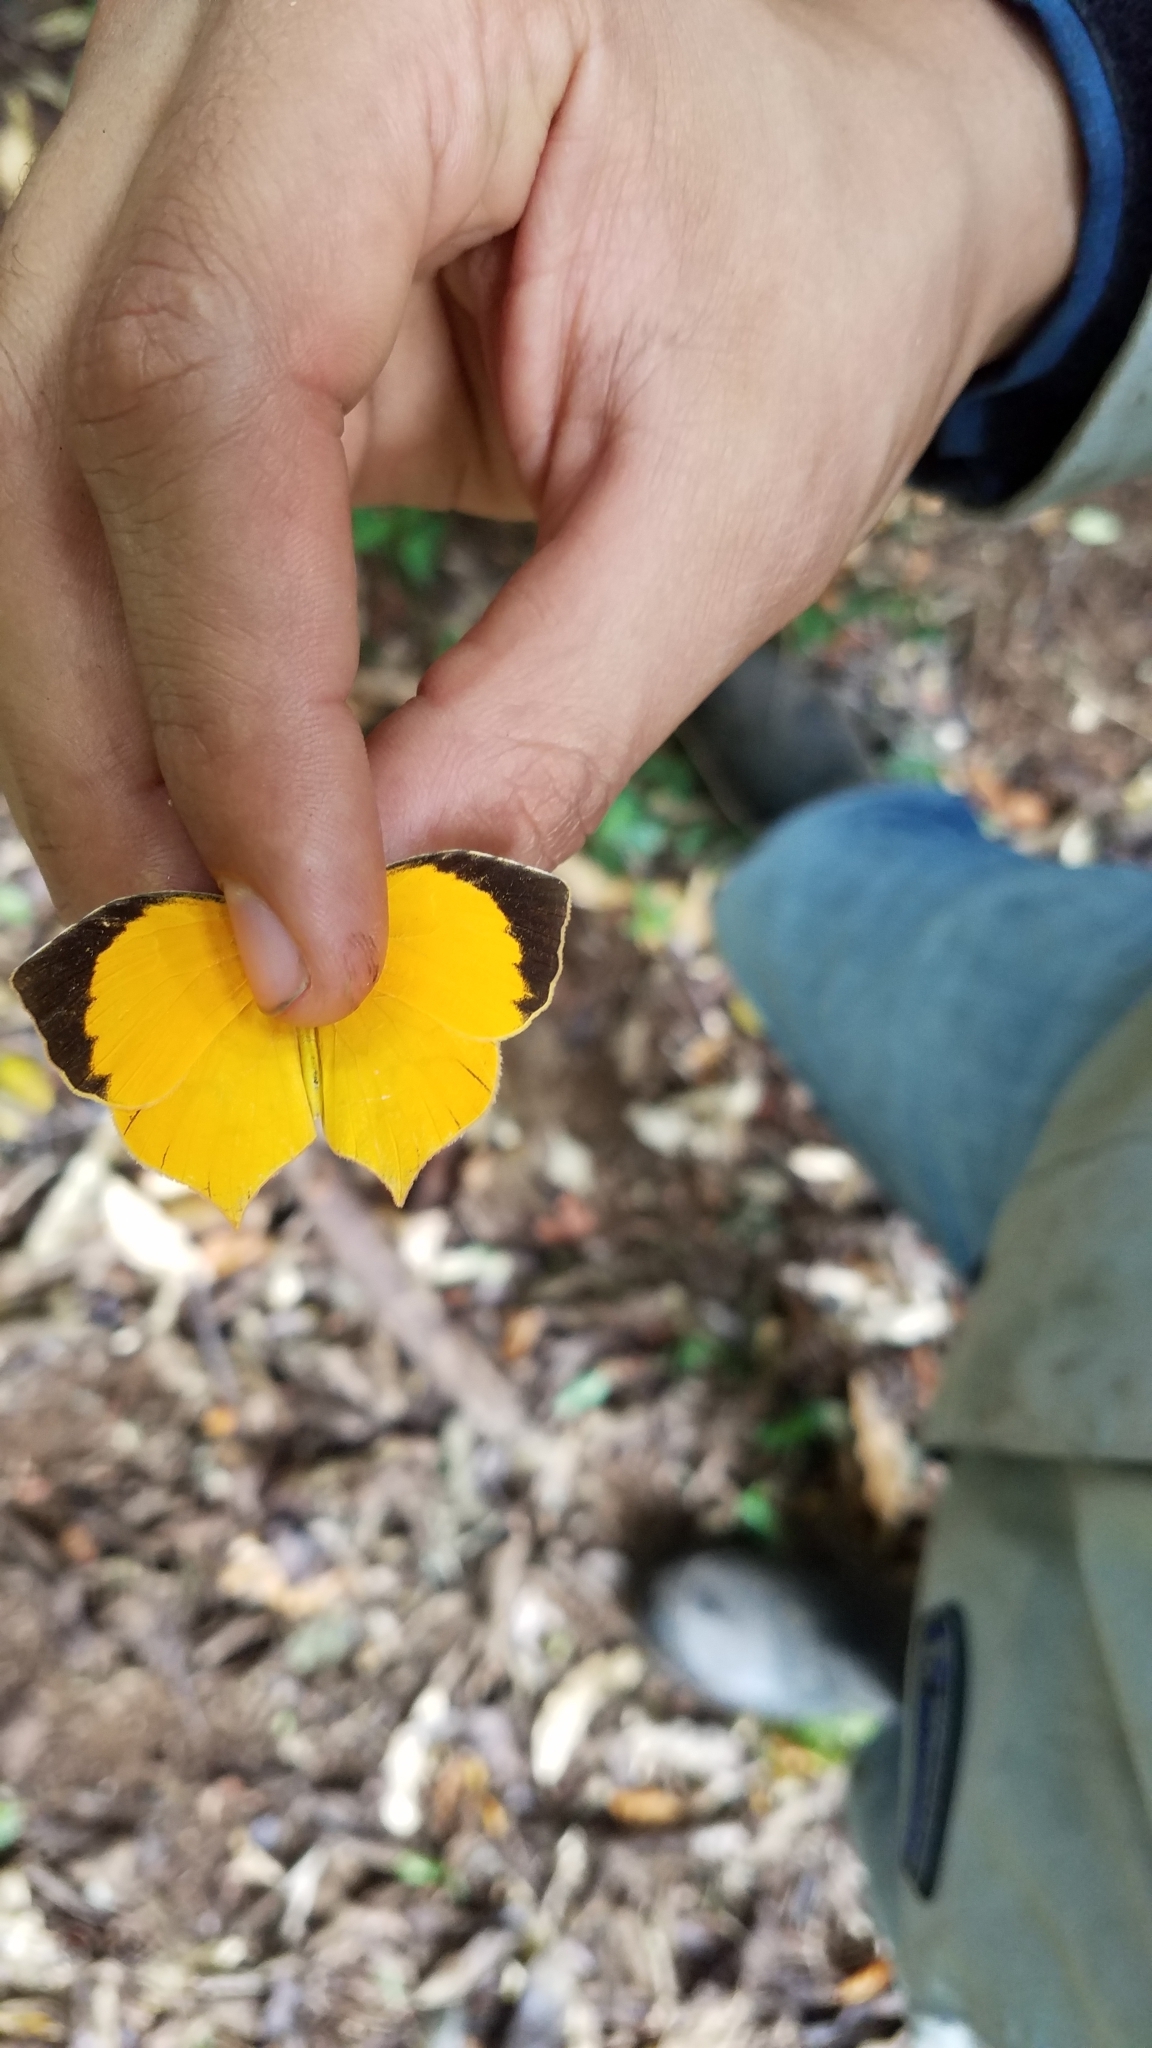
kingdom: Animalia
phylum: Arthropoda
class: Insecta
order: Lepidoptera
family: Pieridae
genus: Pyrisitia
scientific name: Pyrisitia proterpia
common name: Tailed orange
